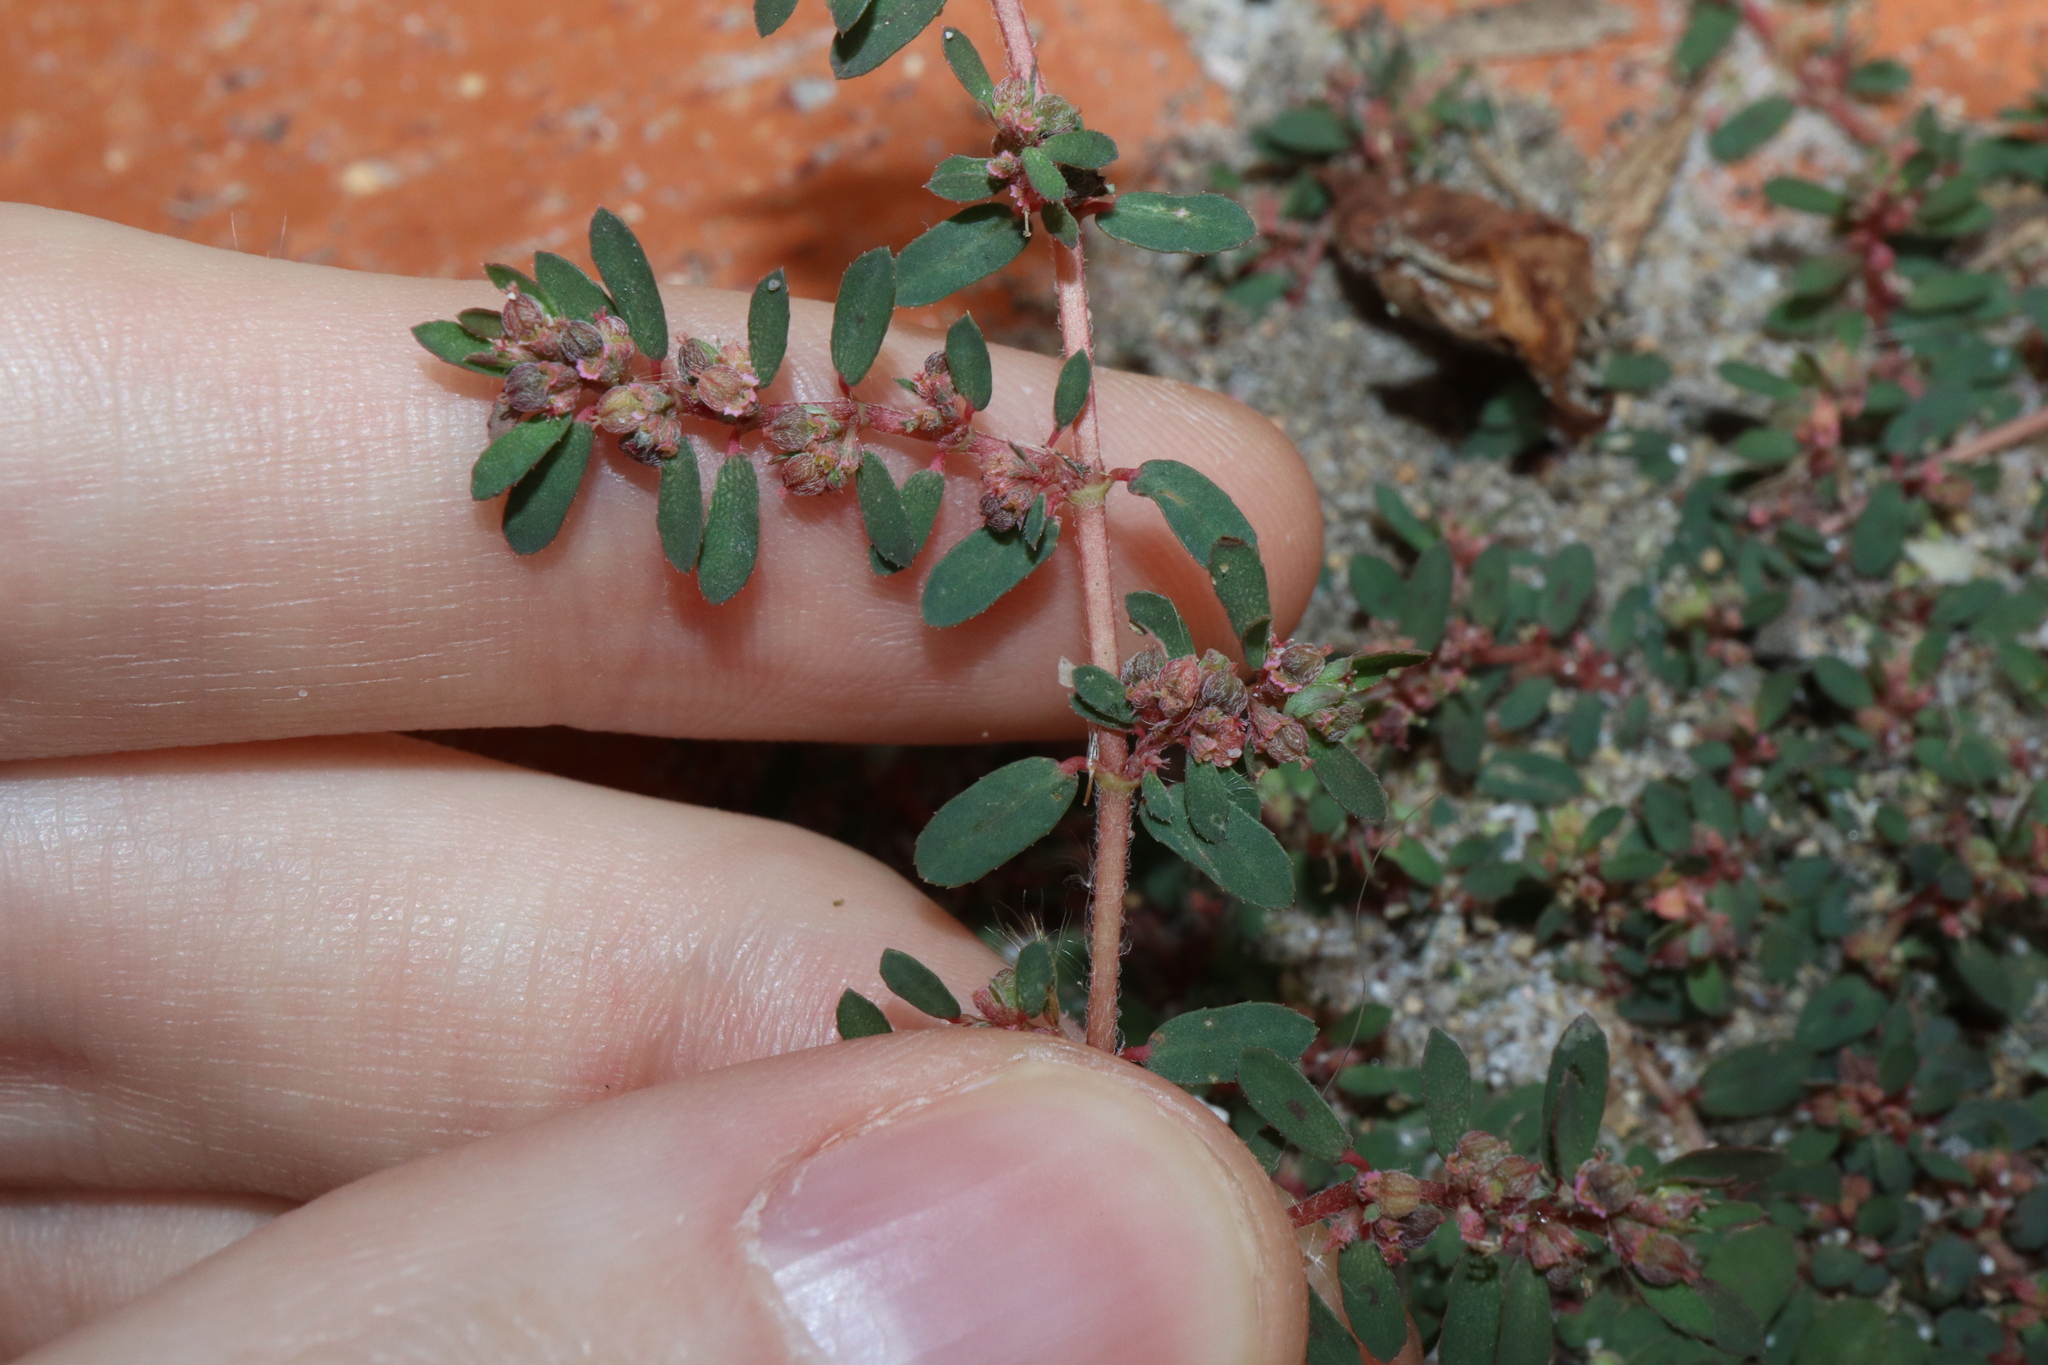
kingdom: Plantae
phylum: Tracheophyta
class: Magnoliopsida
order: Malpighiales
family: Euphorbiaceae
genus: Euphorbia
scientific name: Euphorbia maculata
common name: Spotted spurge
